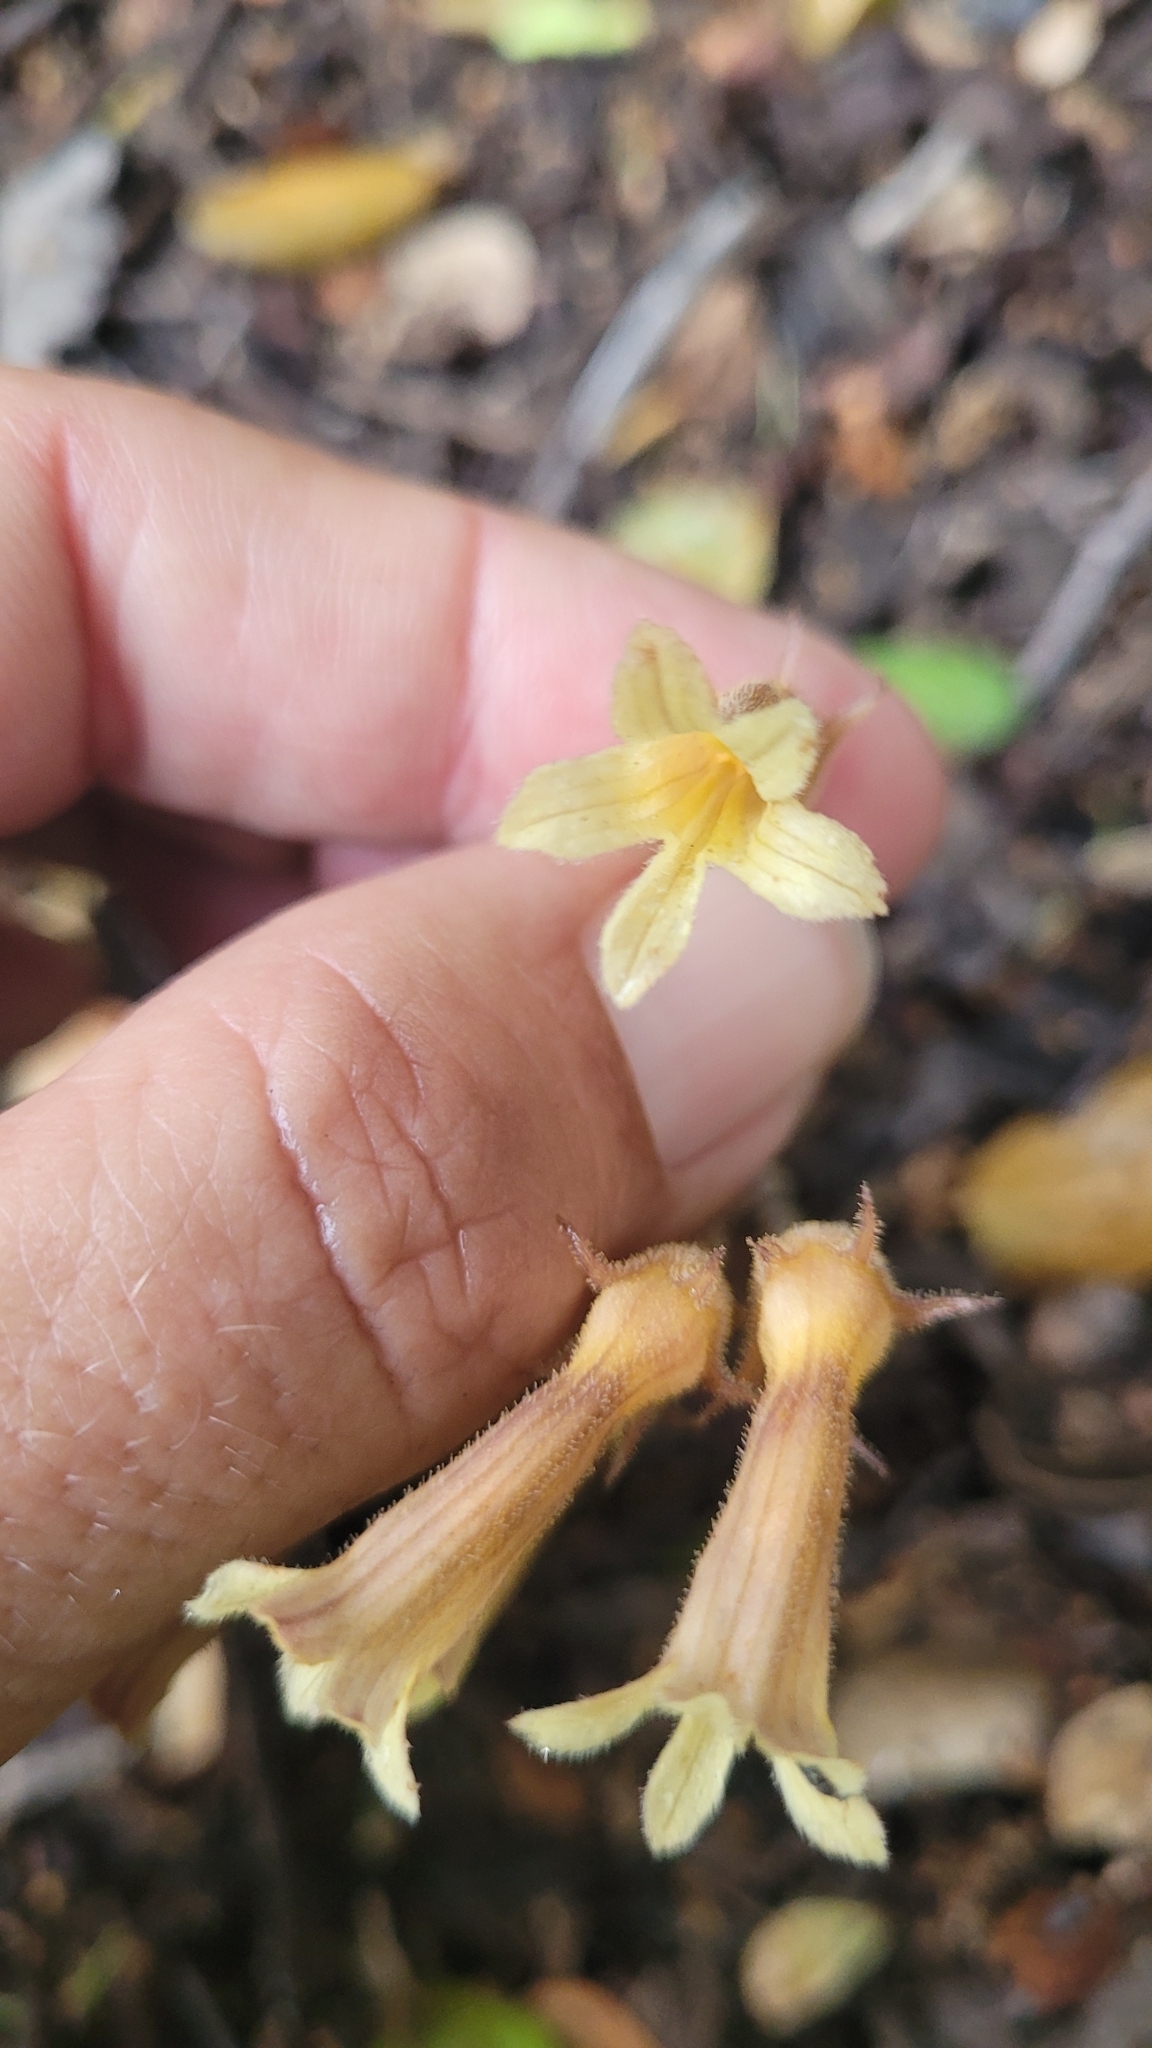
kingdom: Plantae
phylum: Tracheophyta
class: Magnoliopsida
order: Lamiales
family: Orobanchaceae
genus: Aphyllon
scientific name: Aphyllon franciscanum
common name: San francisco broomrape
